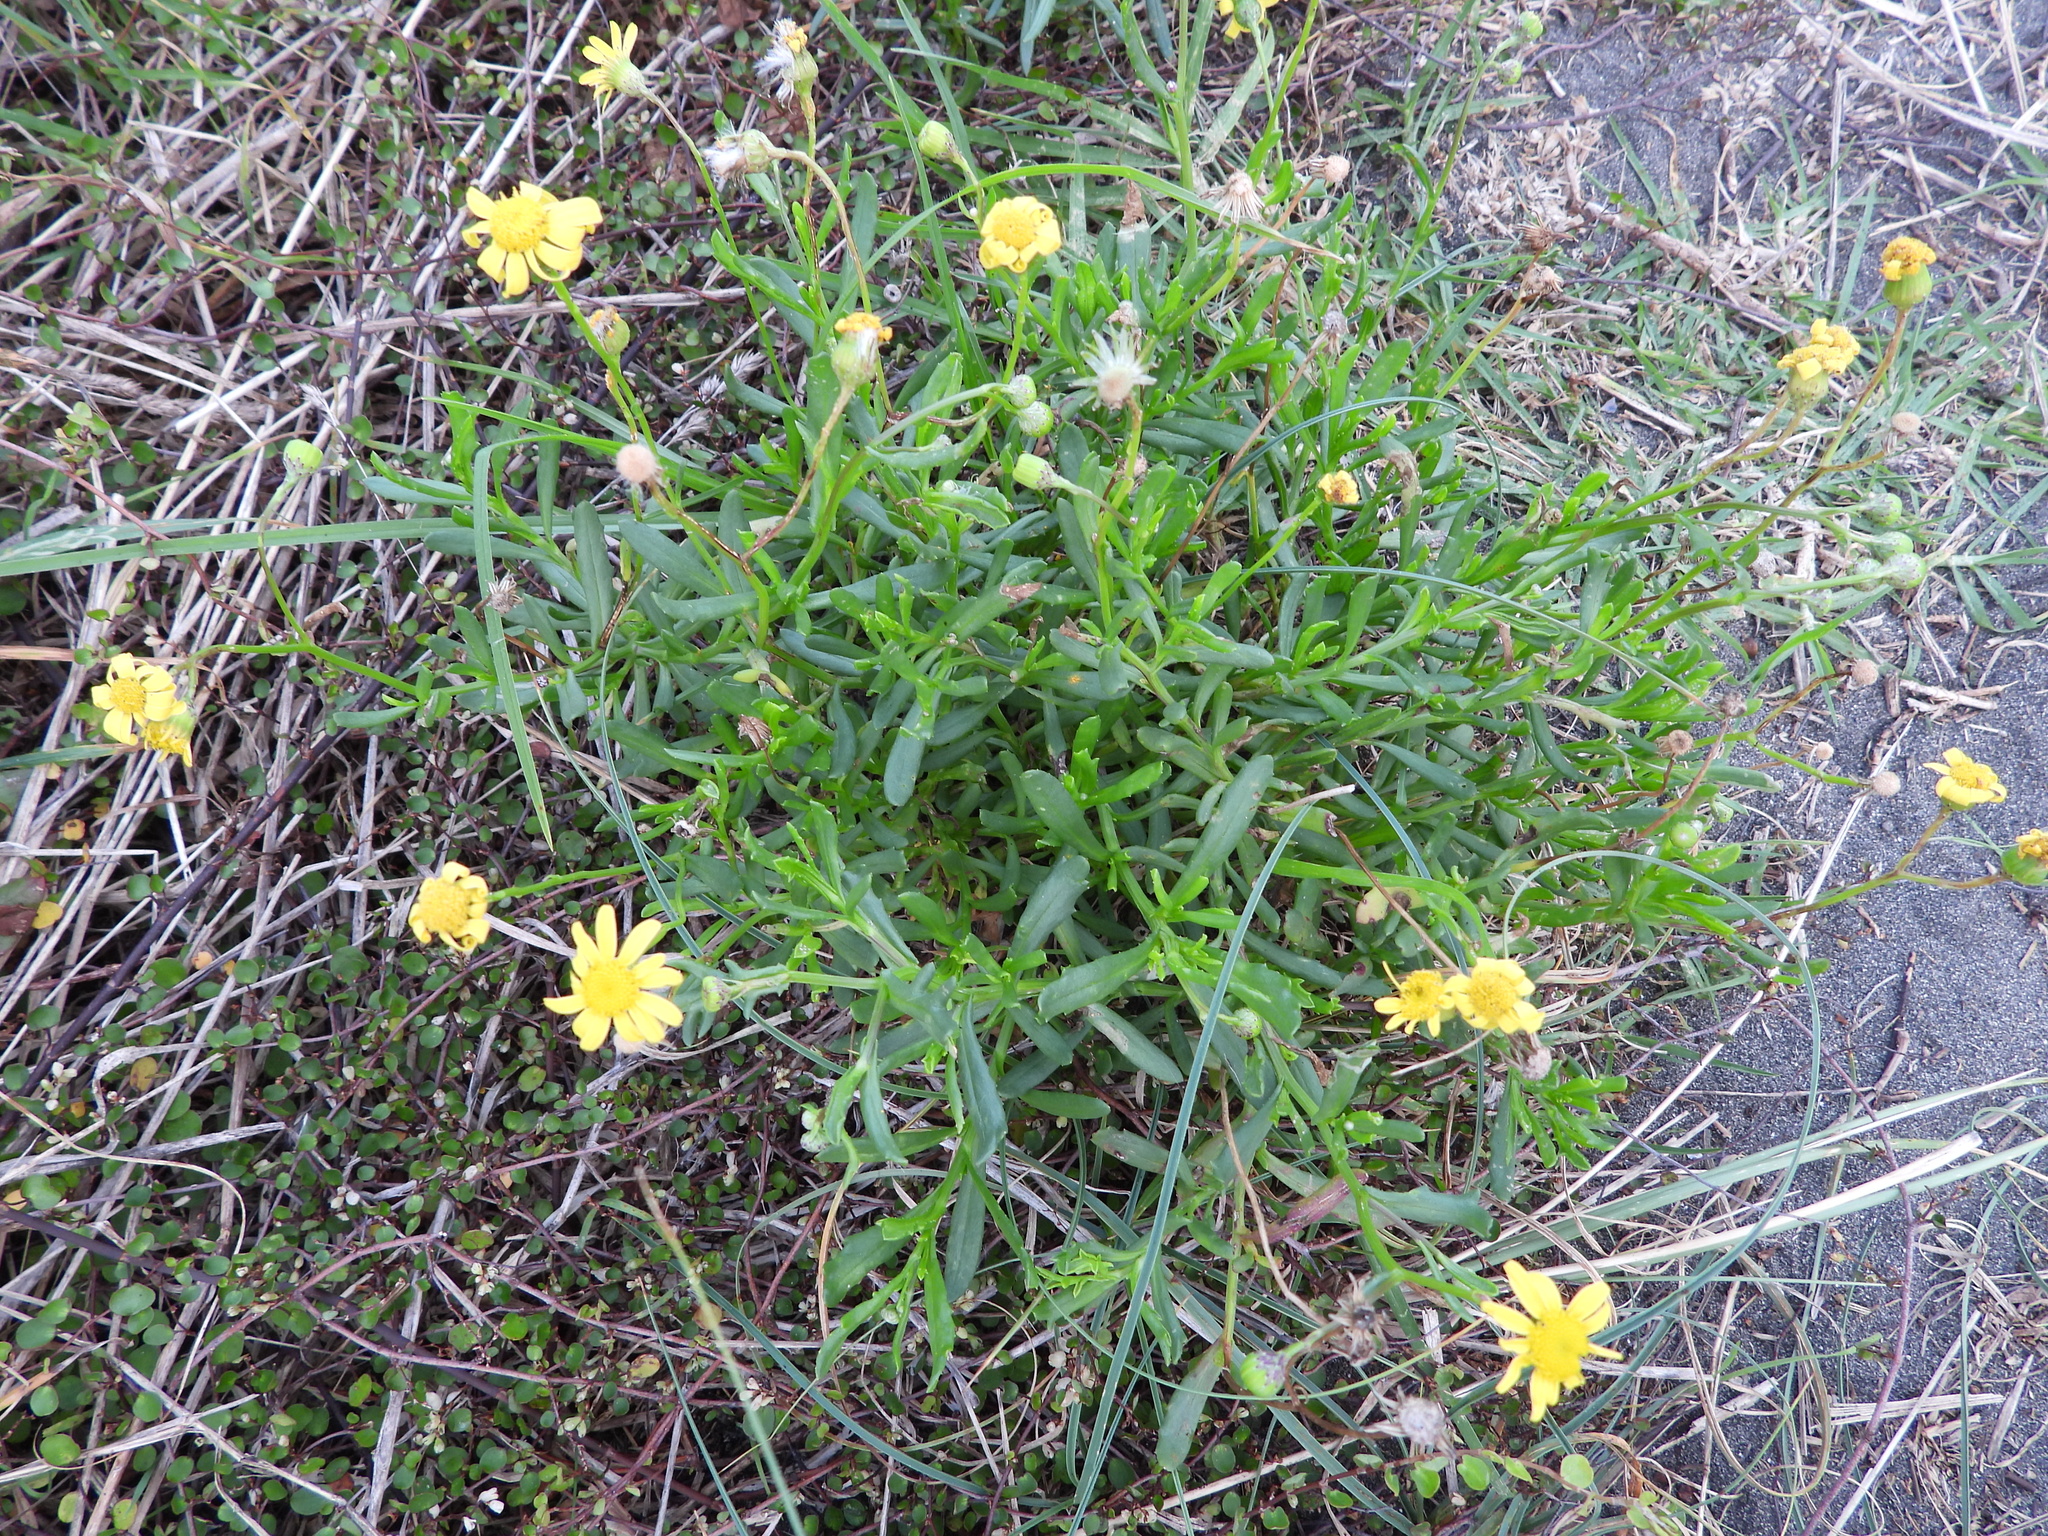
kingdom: Plantae
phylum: Tracheophyta
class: Magnoliopsida
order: Asterales
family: Asteraceae
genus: Senecio
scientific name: Senecio skirrhodon
